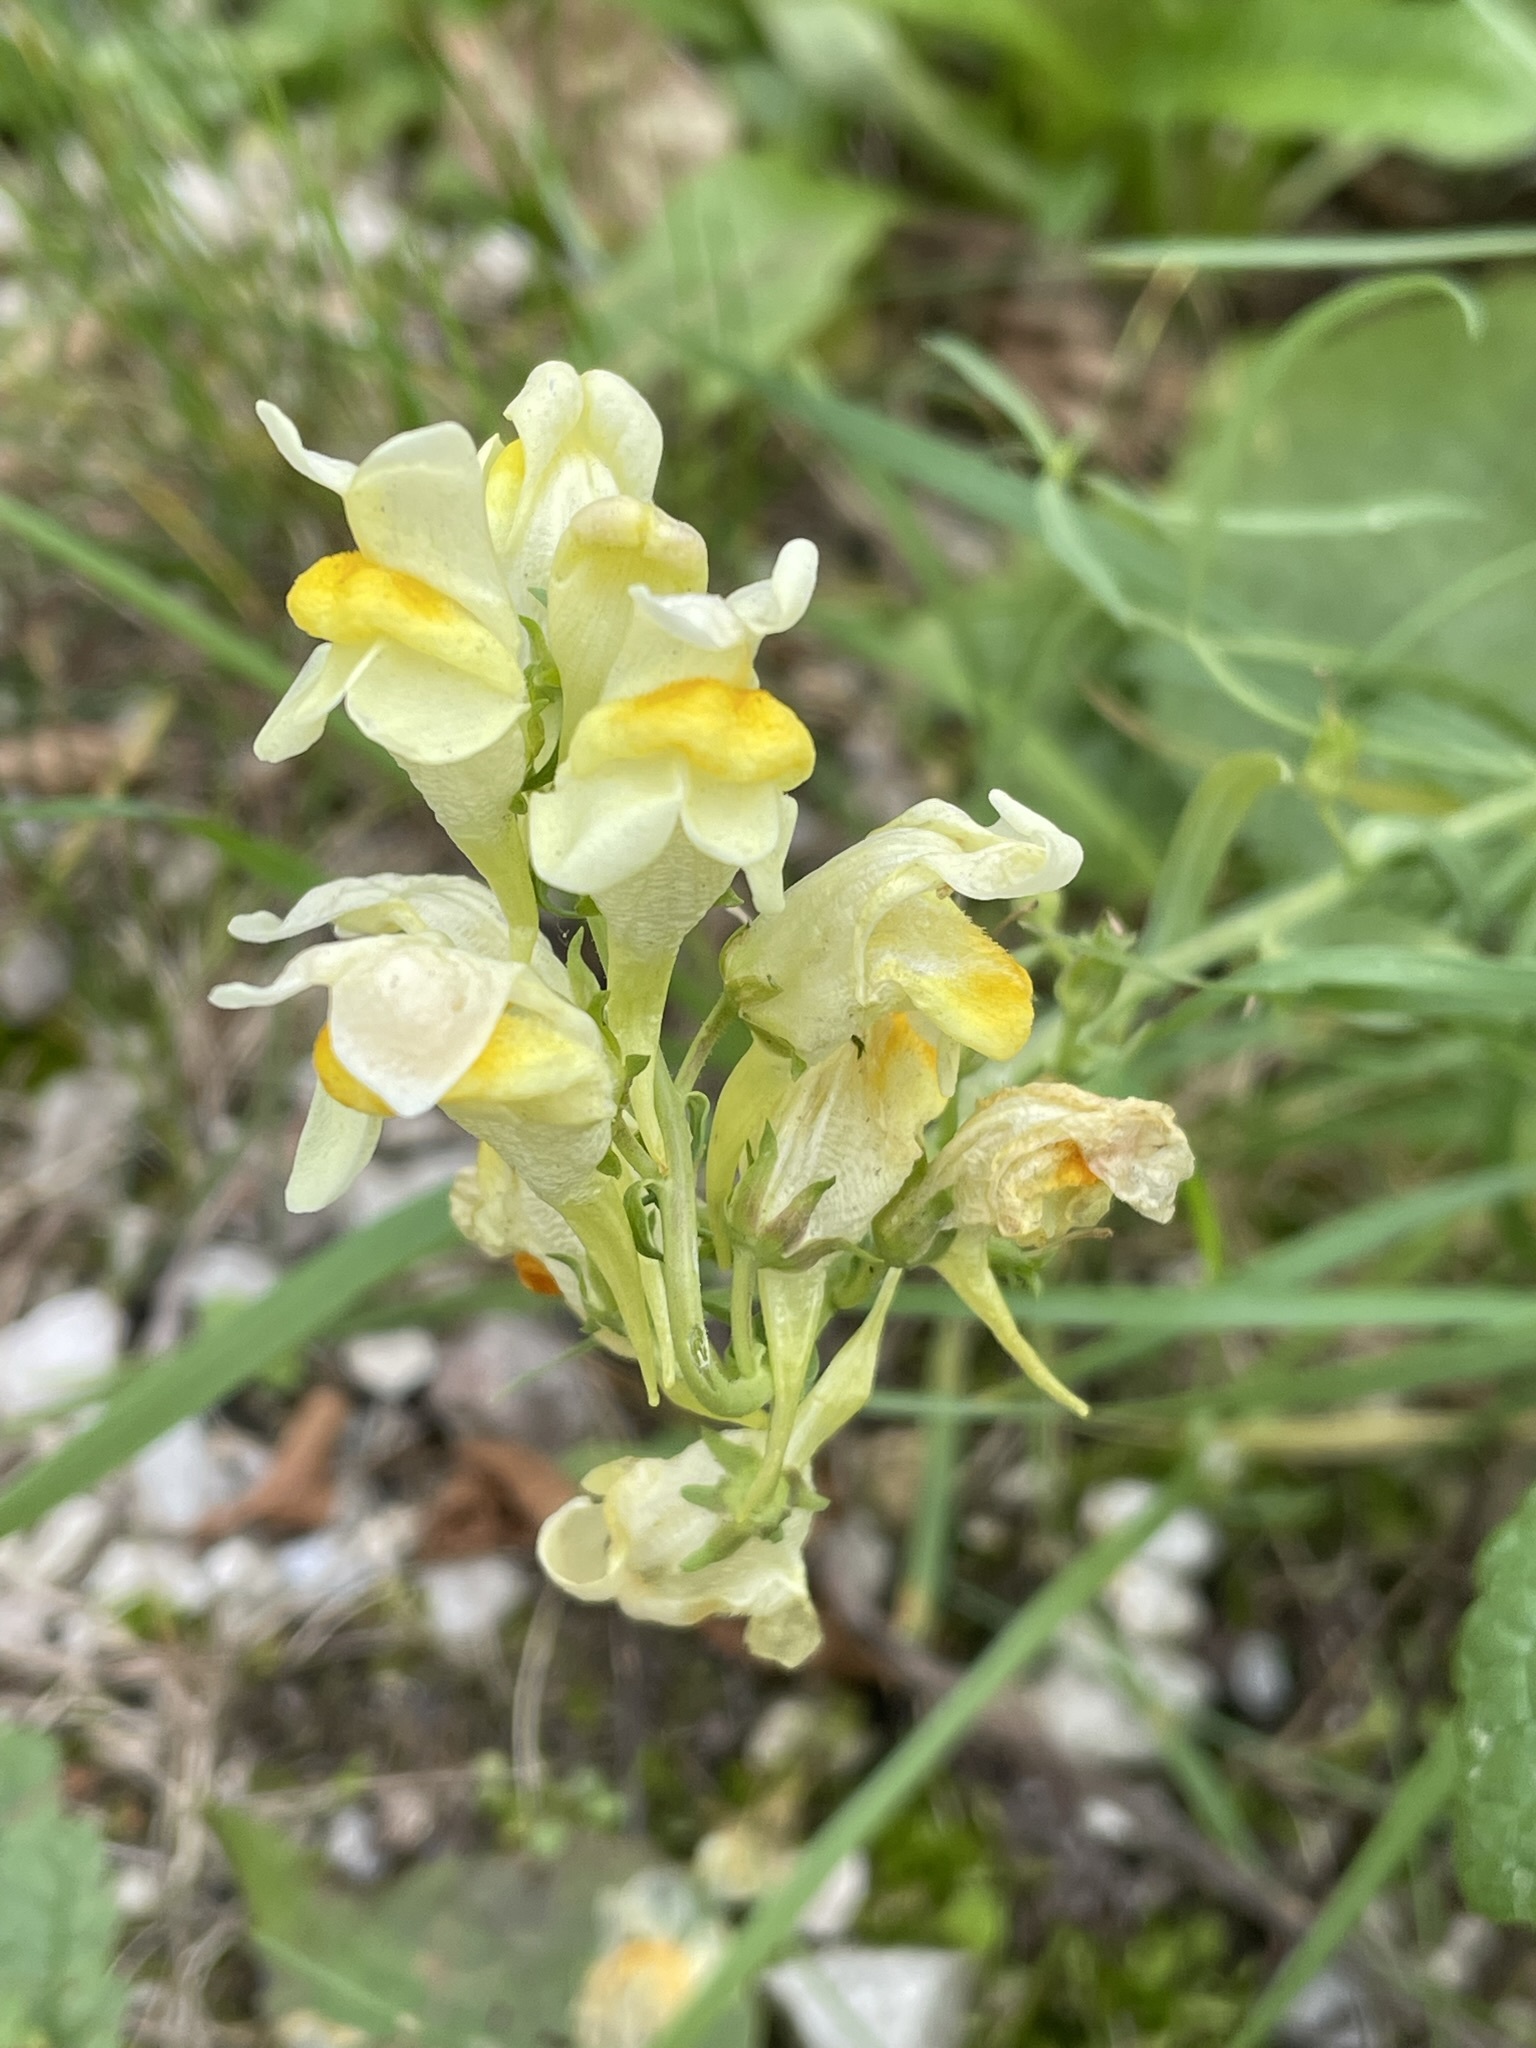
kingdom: Plantae
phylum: Tracheophyta
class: Magnoliopsida
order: Lamiales
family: Plantaginaceae
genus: Linaria
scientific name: Linaria vulgaris
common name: Butter and eggs
